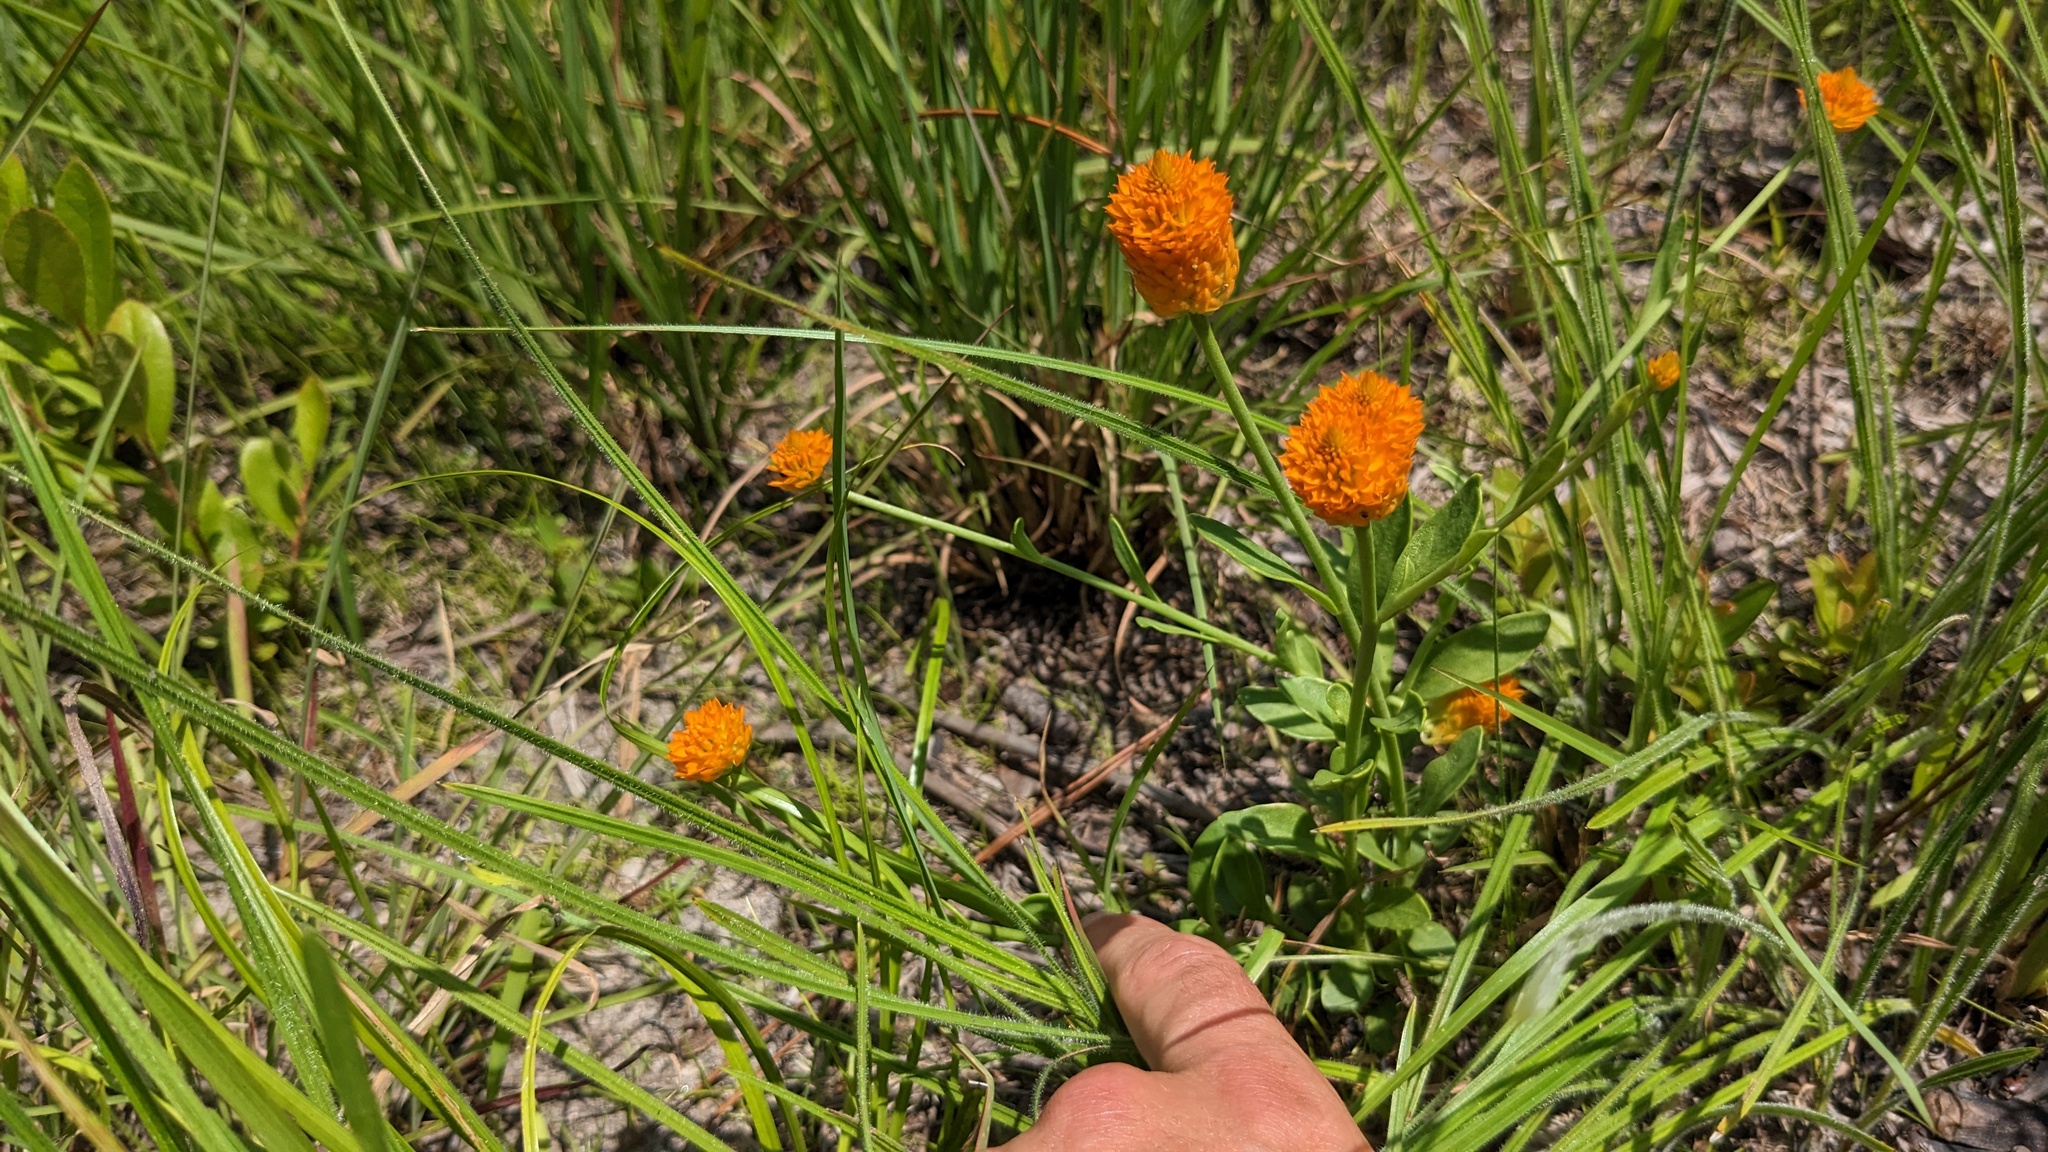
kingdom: Plantae
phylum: Tracheophyta
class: Magnoliopsida
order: Fabales
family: Polygalaceae
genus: Polygala
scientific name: Polygala lutea
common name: Orange milkwort
